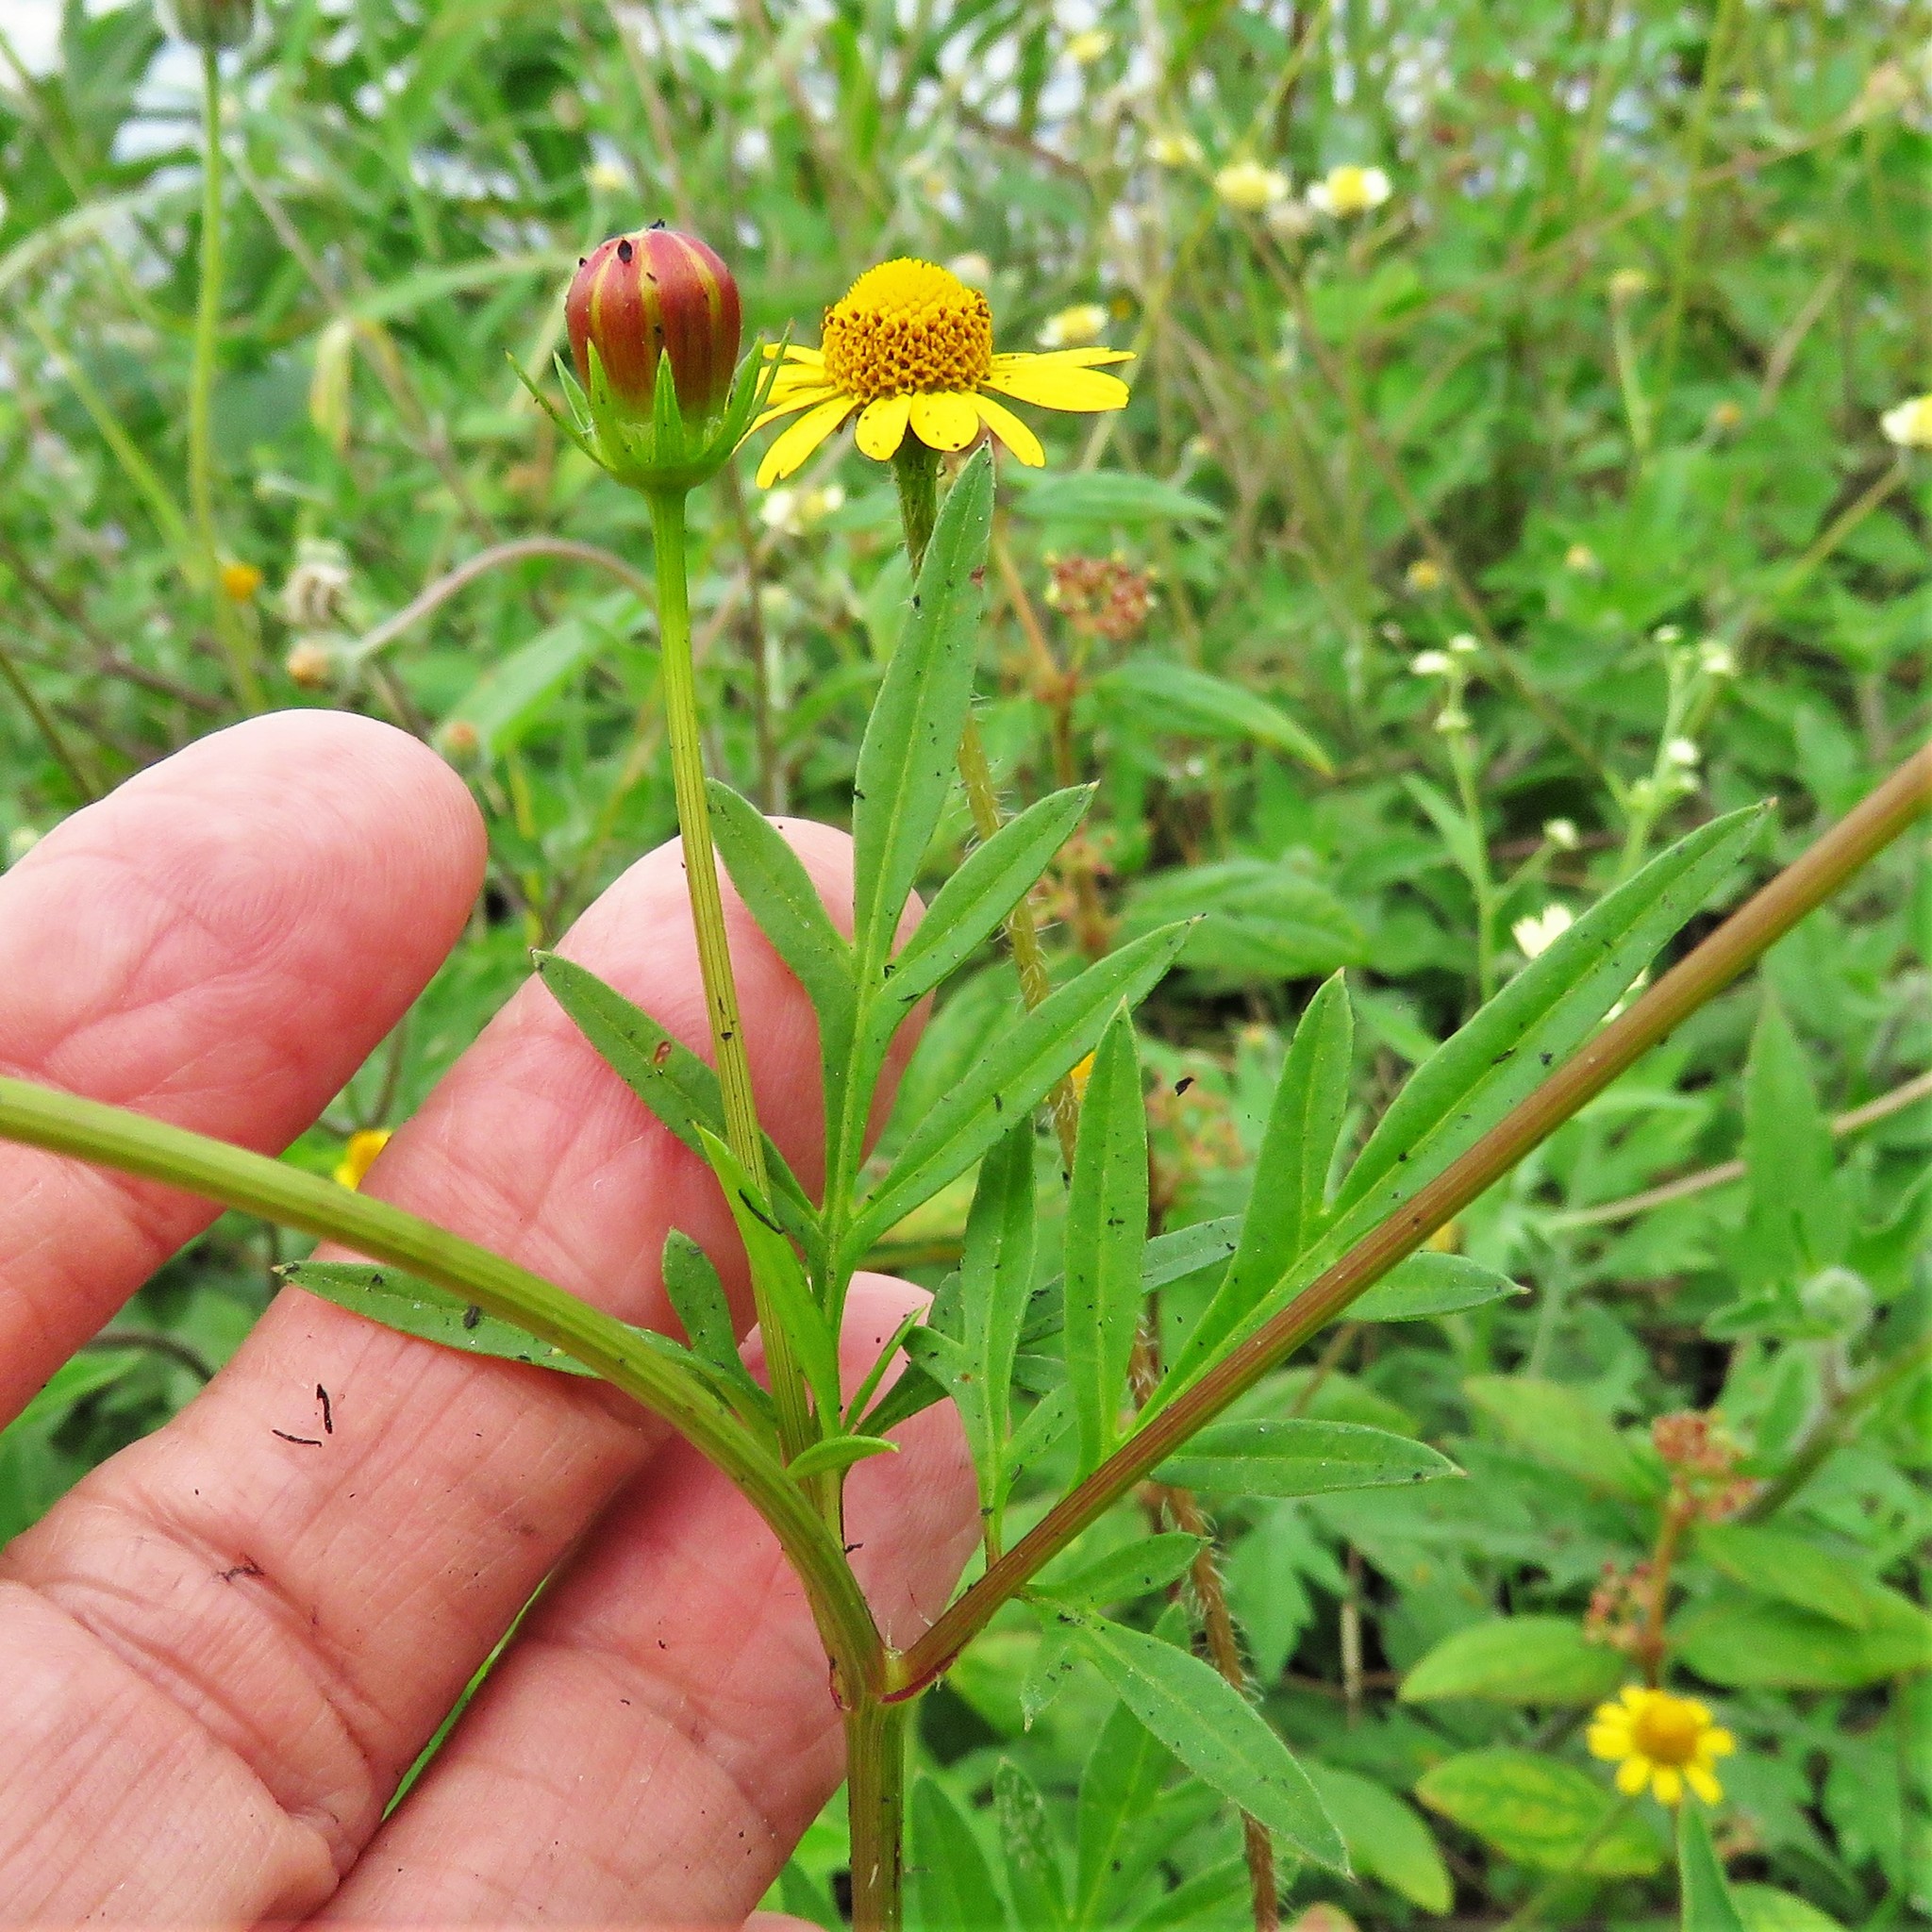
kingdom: Plantae
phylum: Tracheophyta
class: Magnoliopsida
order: Asterales
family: Asteraceae
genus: Cosmos
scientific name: Cosmos sulphureus
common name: Sulphur cosmos
